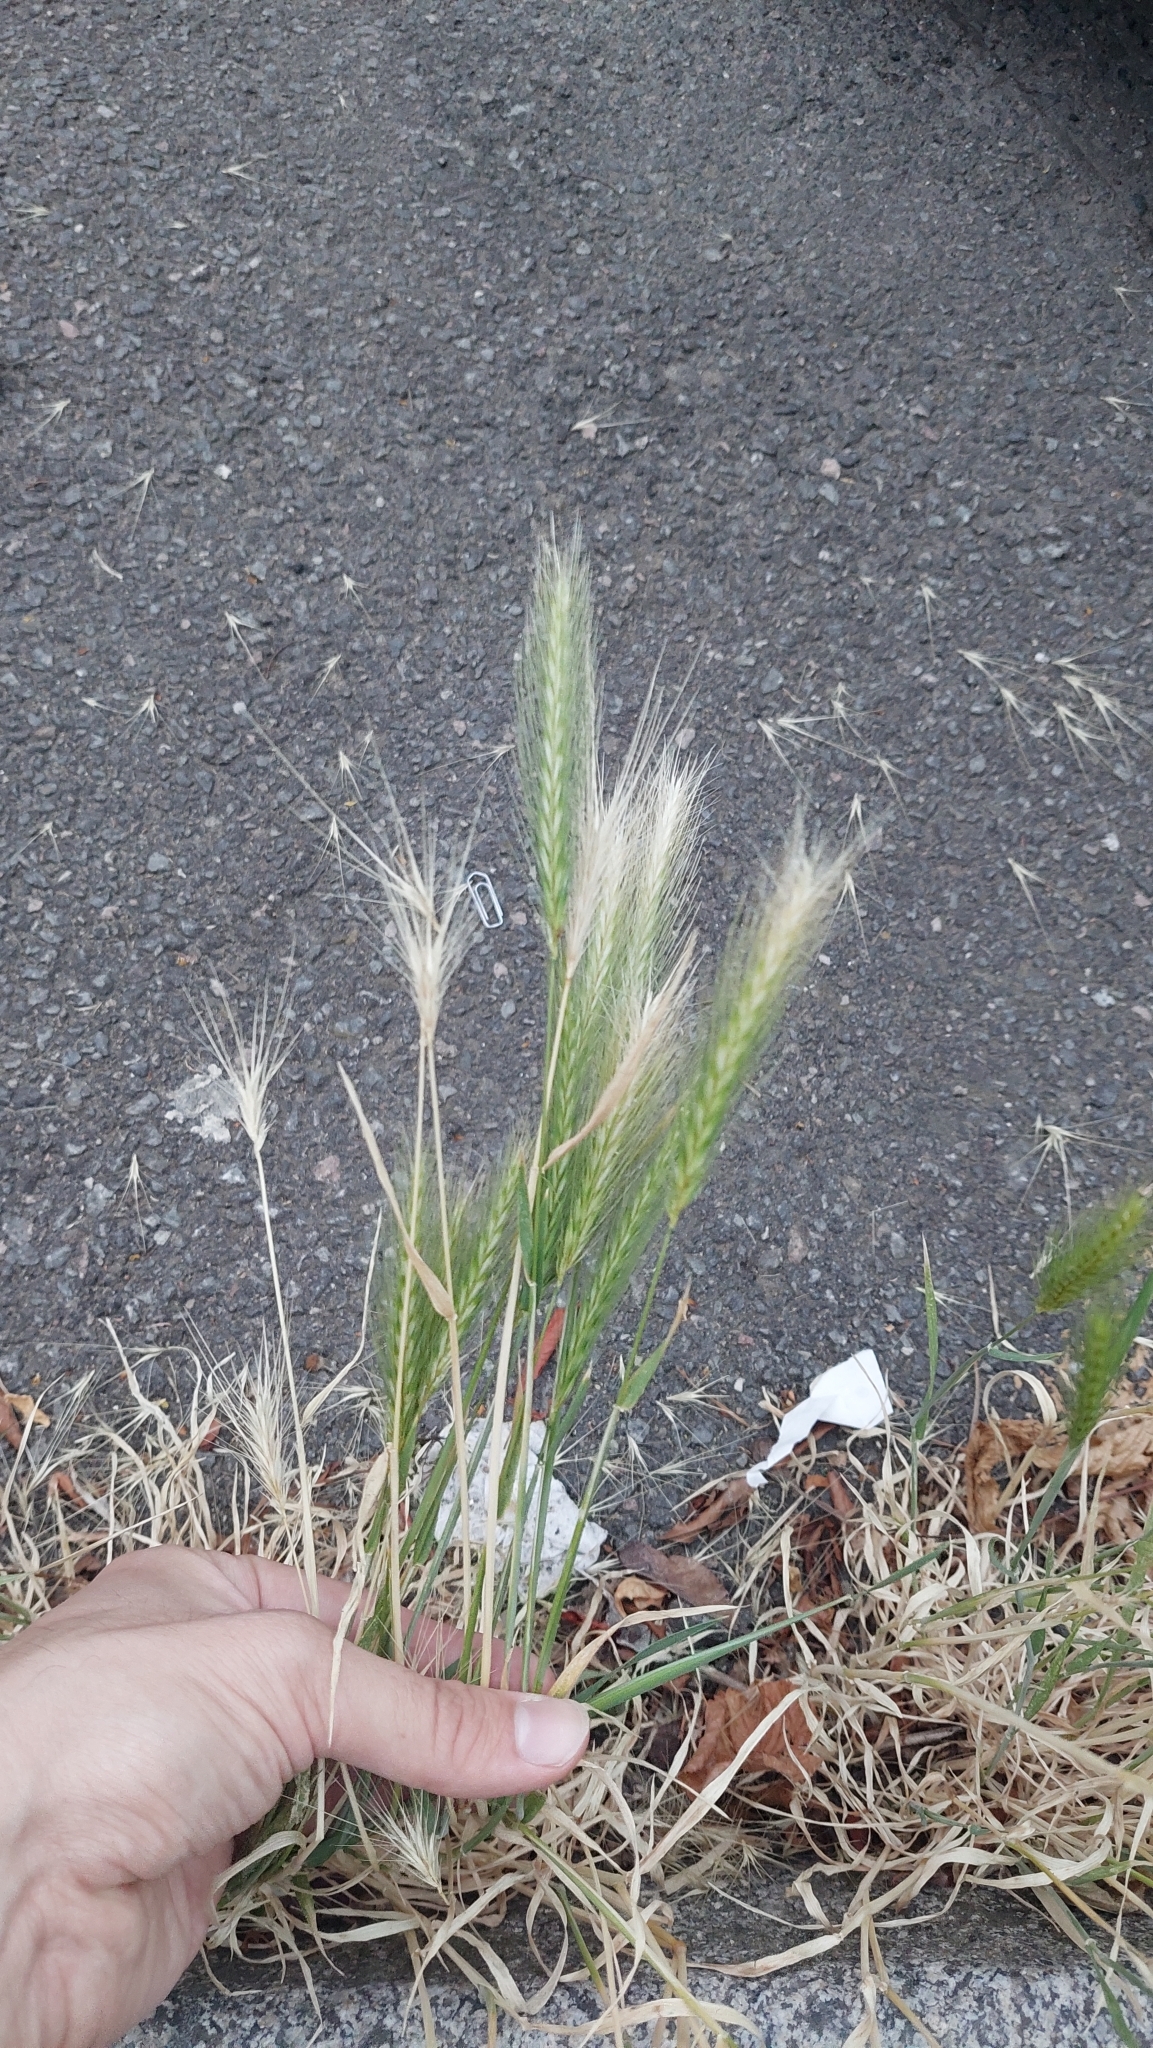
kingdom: Plantae
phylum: Tracheophyta
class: Liliopsida
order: Poales
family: Poaceae
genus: Hordeum
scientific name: Hordeum murinum
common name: Wall barley
